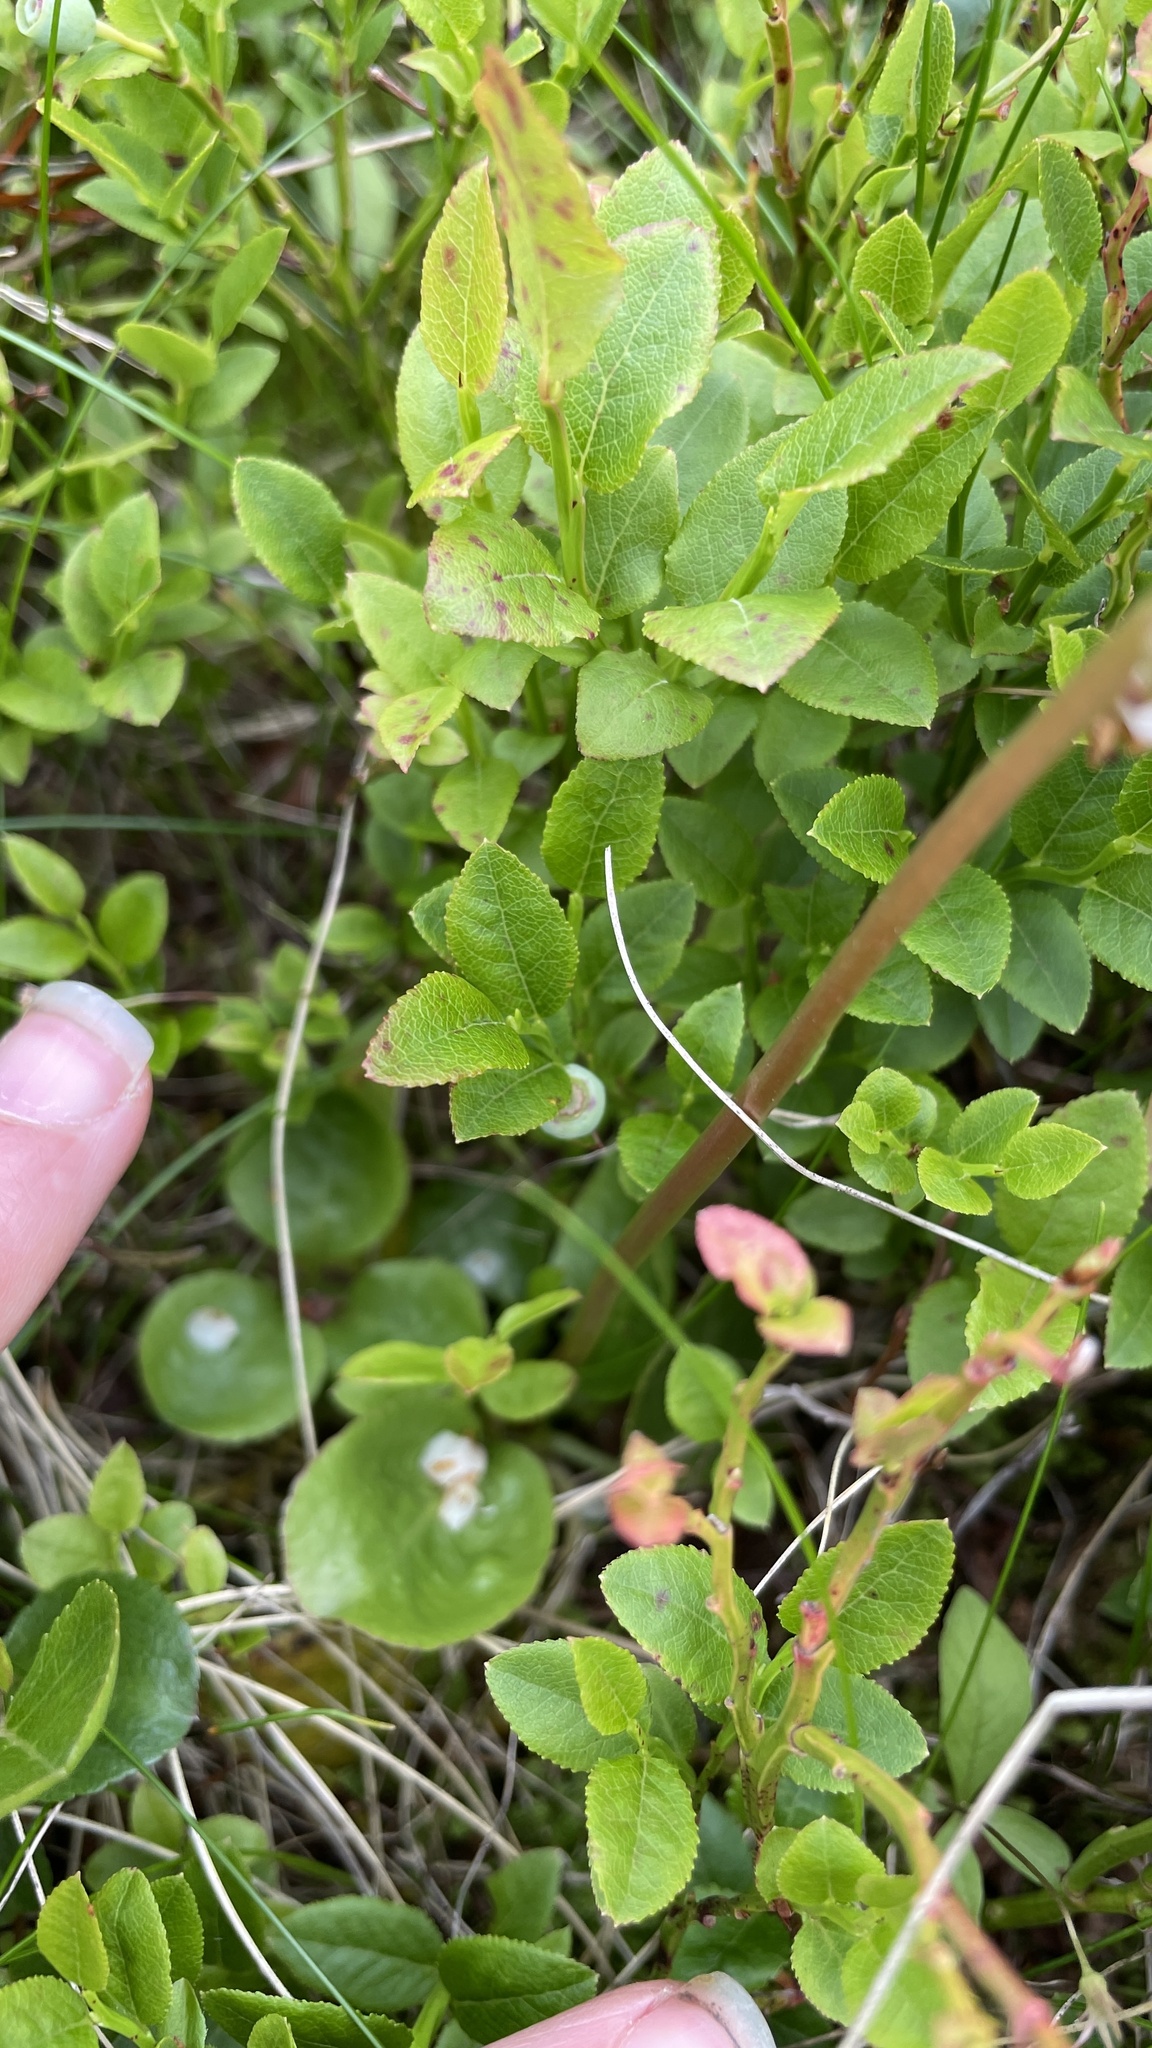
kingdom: Plantae
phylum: Tracheophyta
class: Magnoliopsida
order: Ericales
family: Ericaceae
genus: Pyrola
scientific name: Pyrola minor
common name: Common wintergreen
